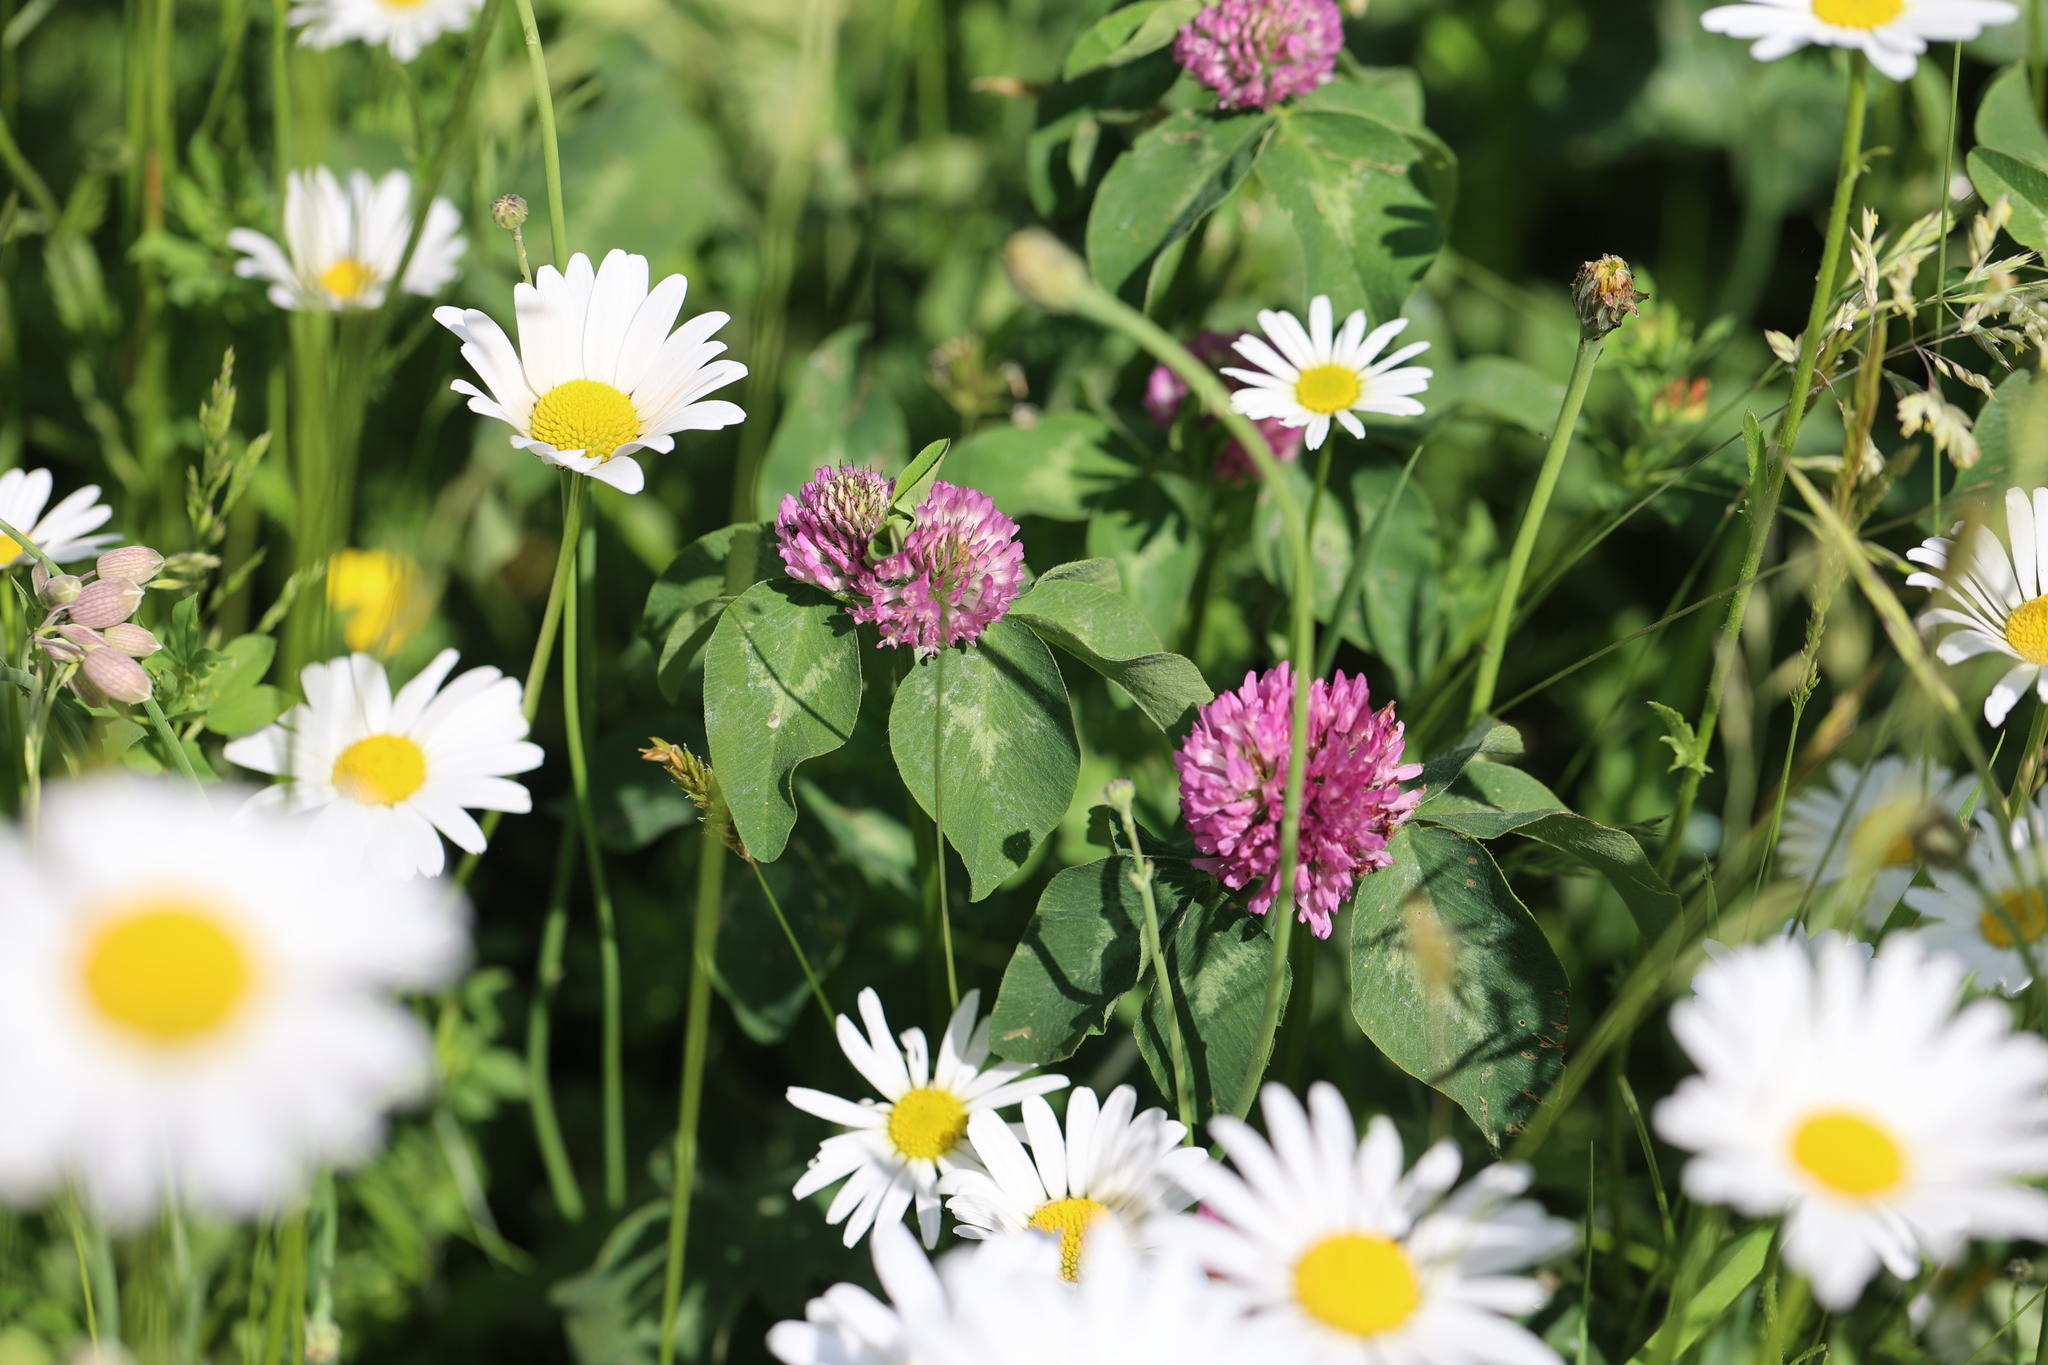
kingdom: Plantae
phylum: Tracheophyta
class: Magnoliopsida
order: Fabales
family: Fabaceae
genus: Trifolium
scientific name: Trifolium pratense
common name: Red clover
